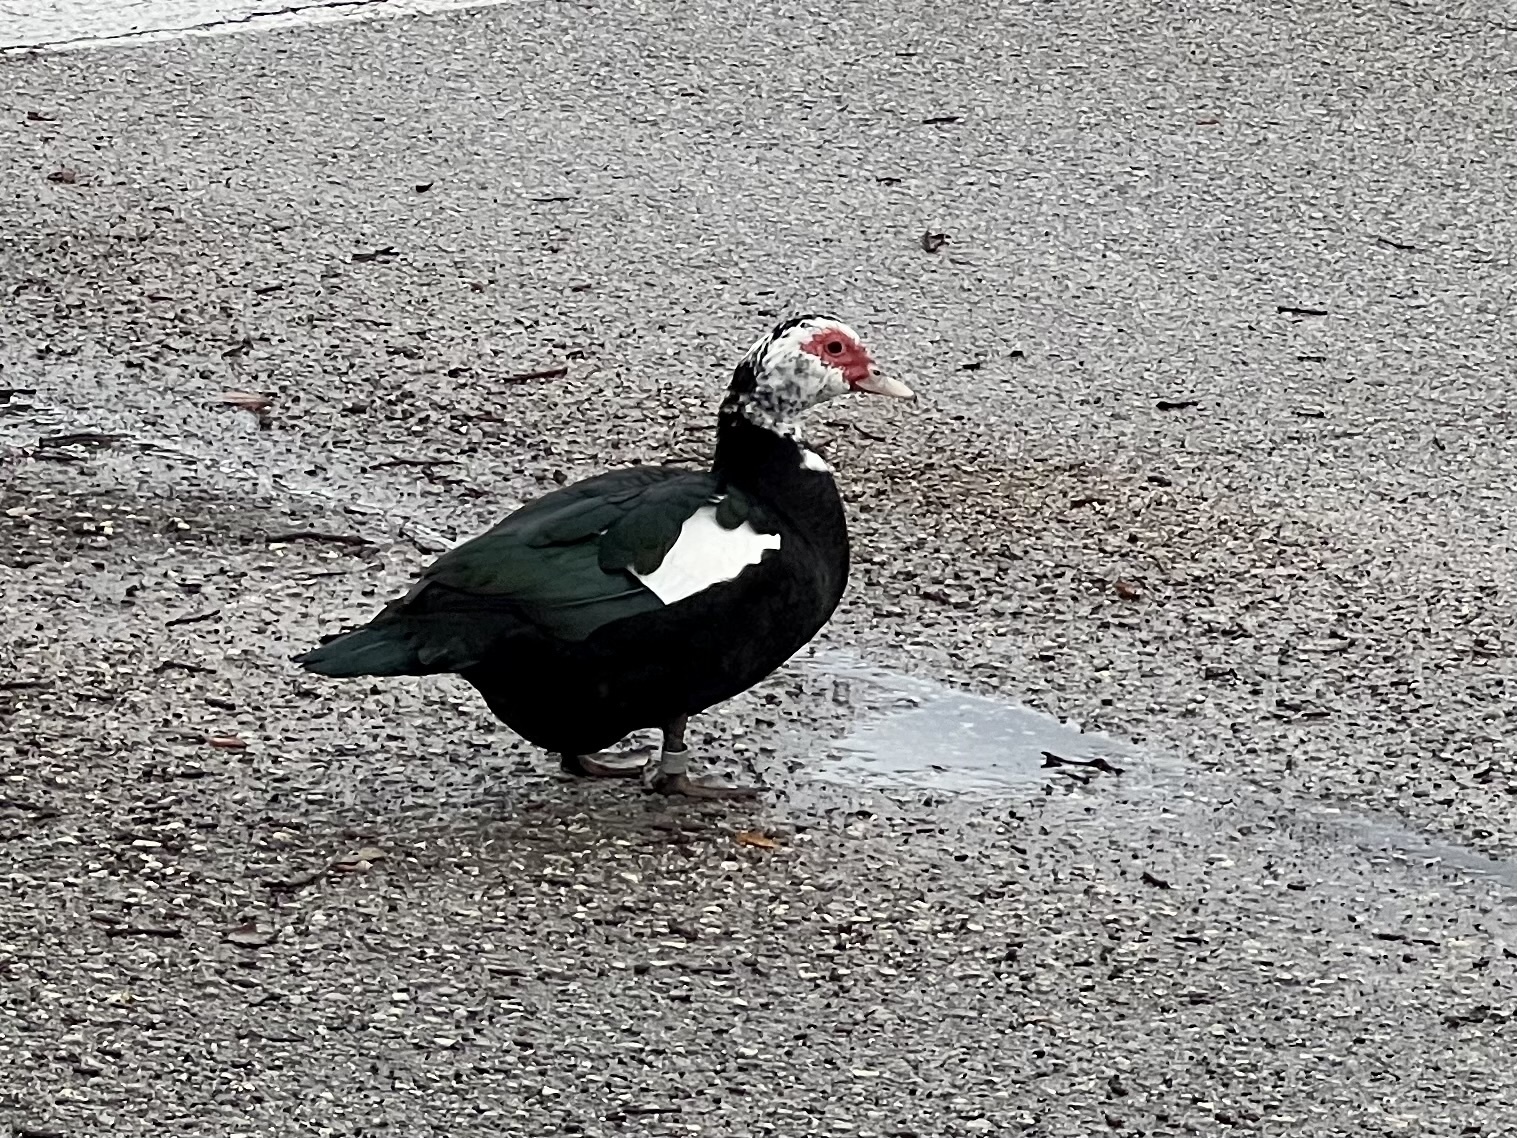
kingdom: Animalia
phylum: Chordata
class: Aves
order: Anseriformes
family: Anatidae
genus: Cairina
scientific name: Cairina moschata
